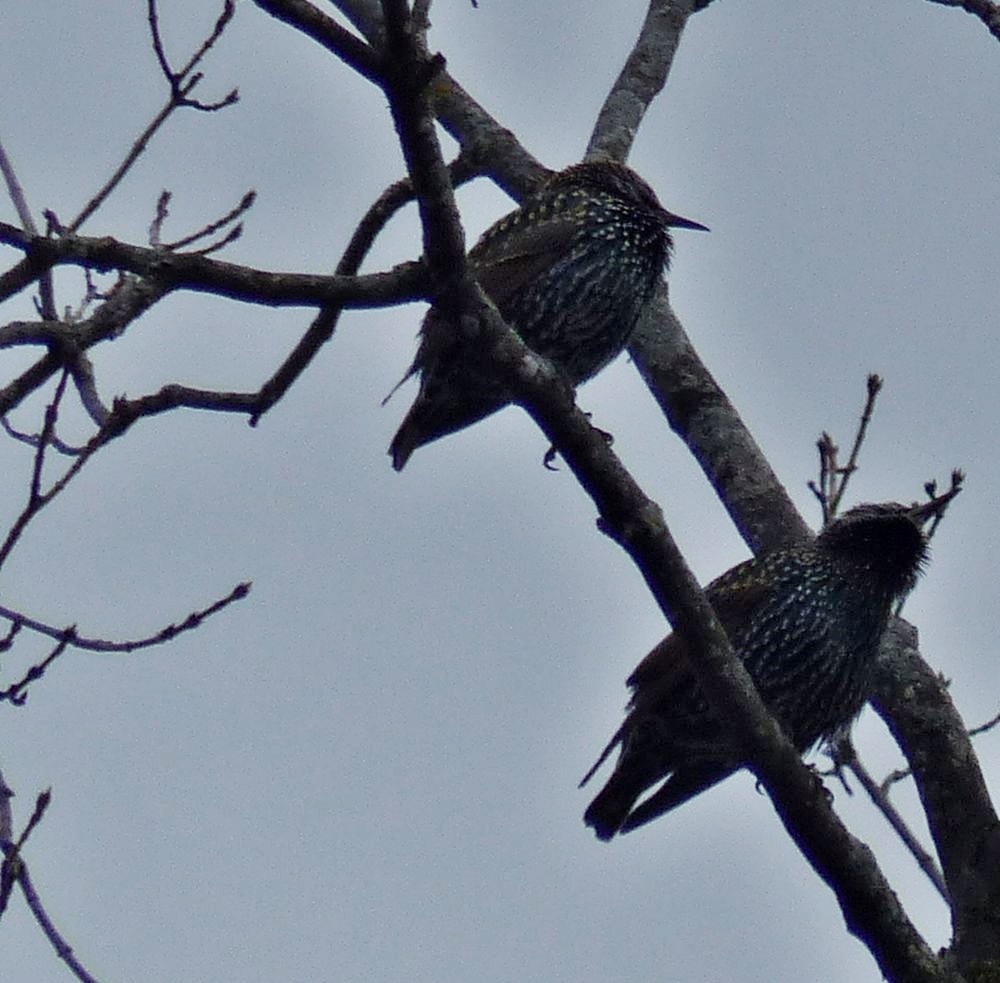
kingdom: Animalia
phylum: Chordata
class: Aves
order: Passeriformes
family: Sturnidae
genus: Sturnus
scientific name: Sturnus vulgaris
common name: Common starling
